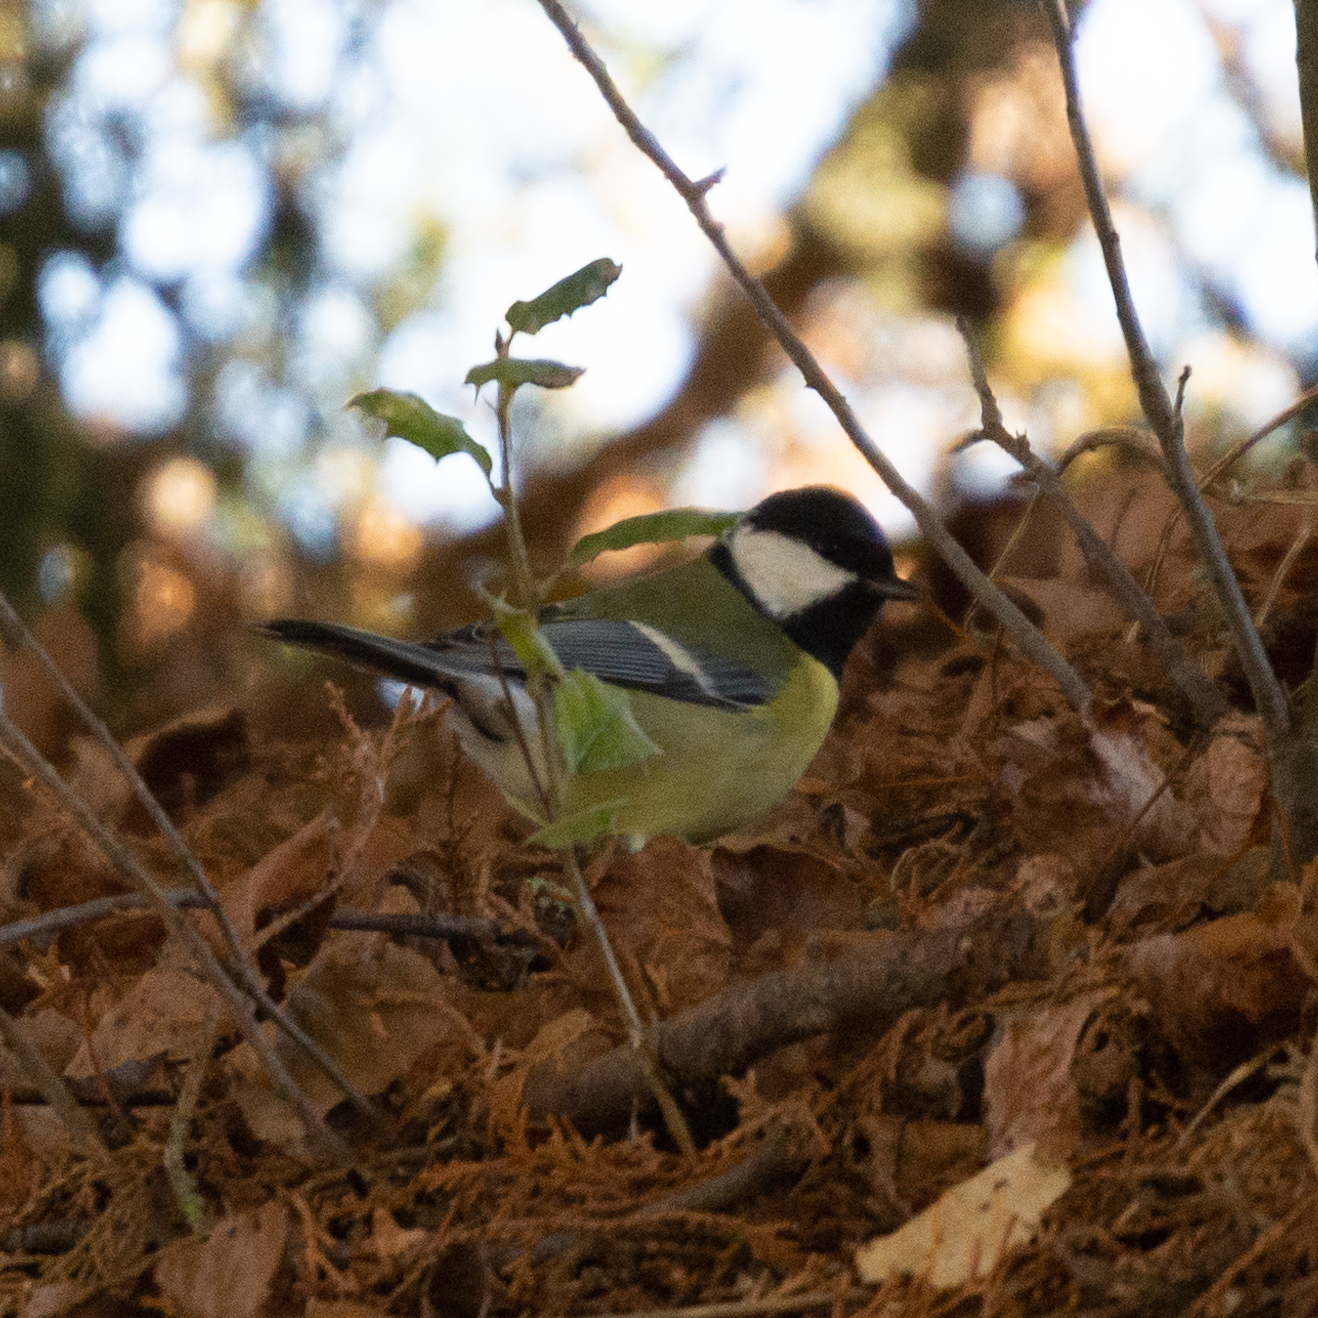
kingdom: Animalia
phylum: Chordata
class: Aves
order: Passeriformes
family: Paridae
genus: Parus
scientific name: Parus major
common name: Great tit
